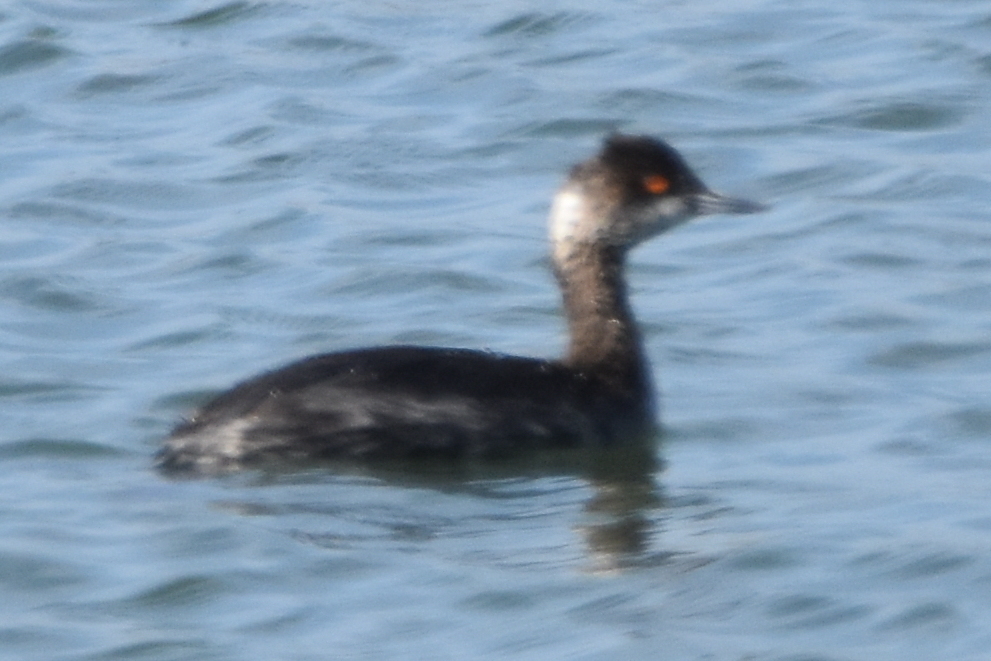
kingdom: Animalia
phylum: Chordata
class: Aves
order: Podicipediformes
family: Podicipedidae
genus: Podiceps
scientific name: Podiceps nigricollis
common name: Black-necked grebe
